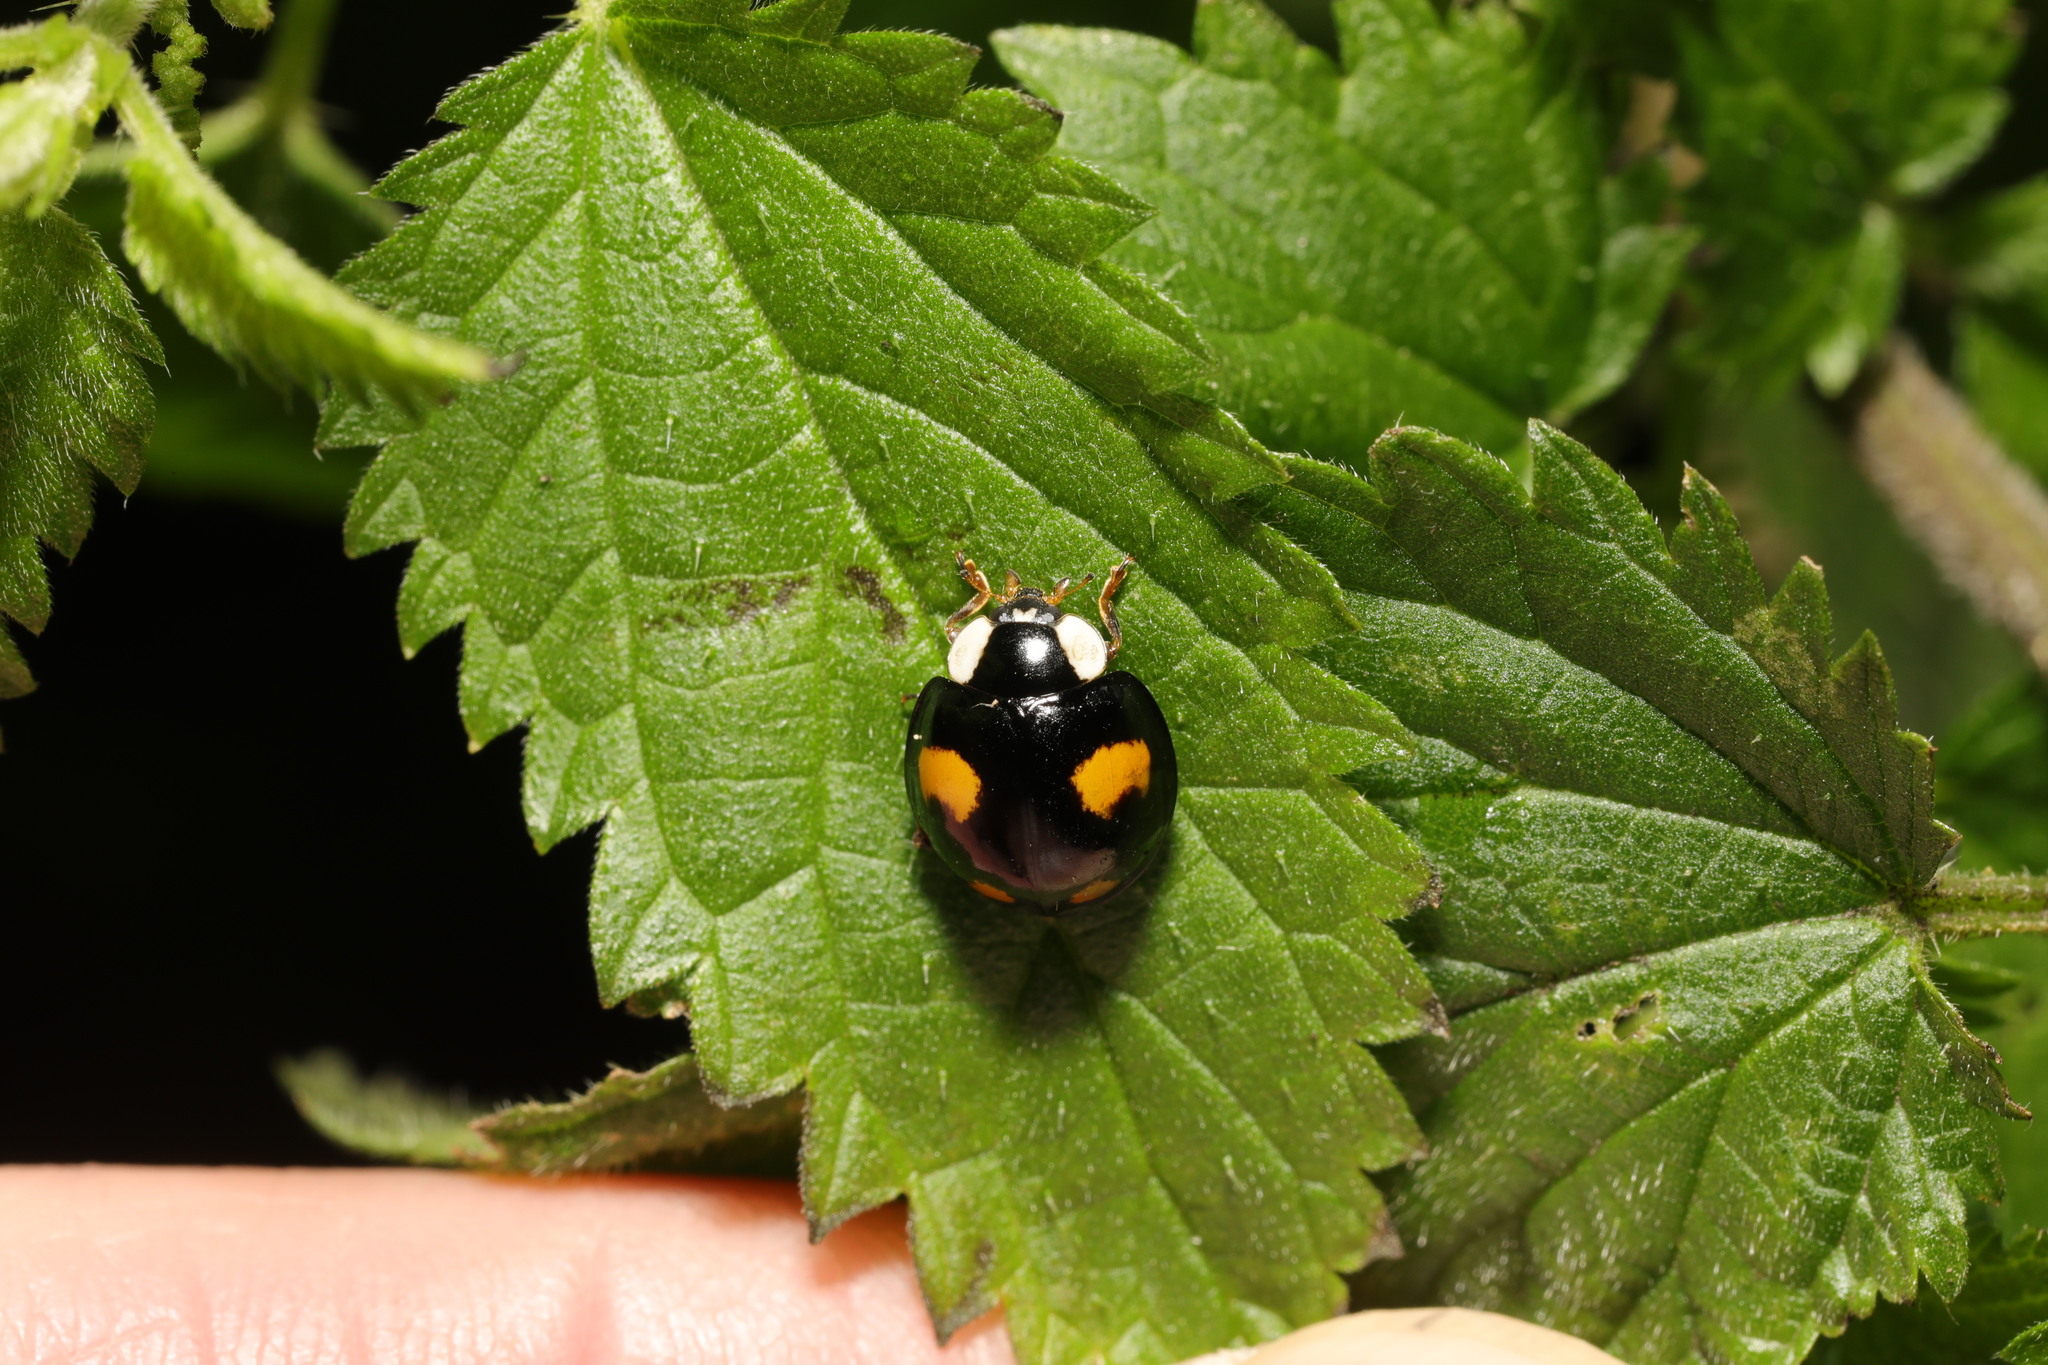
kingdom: Animalia
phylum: Arthropoda
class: Insecta
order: Coleoptera
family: Coccinellidae
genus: Harmonia
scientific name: Harmonia axyridis
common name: Harlequin ladybird
